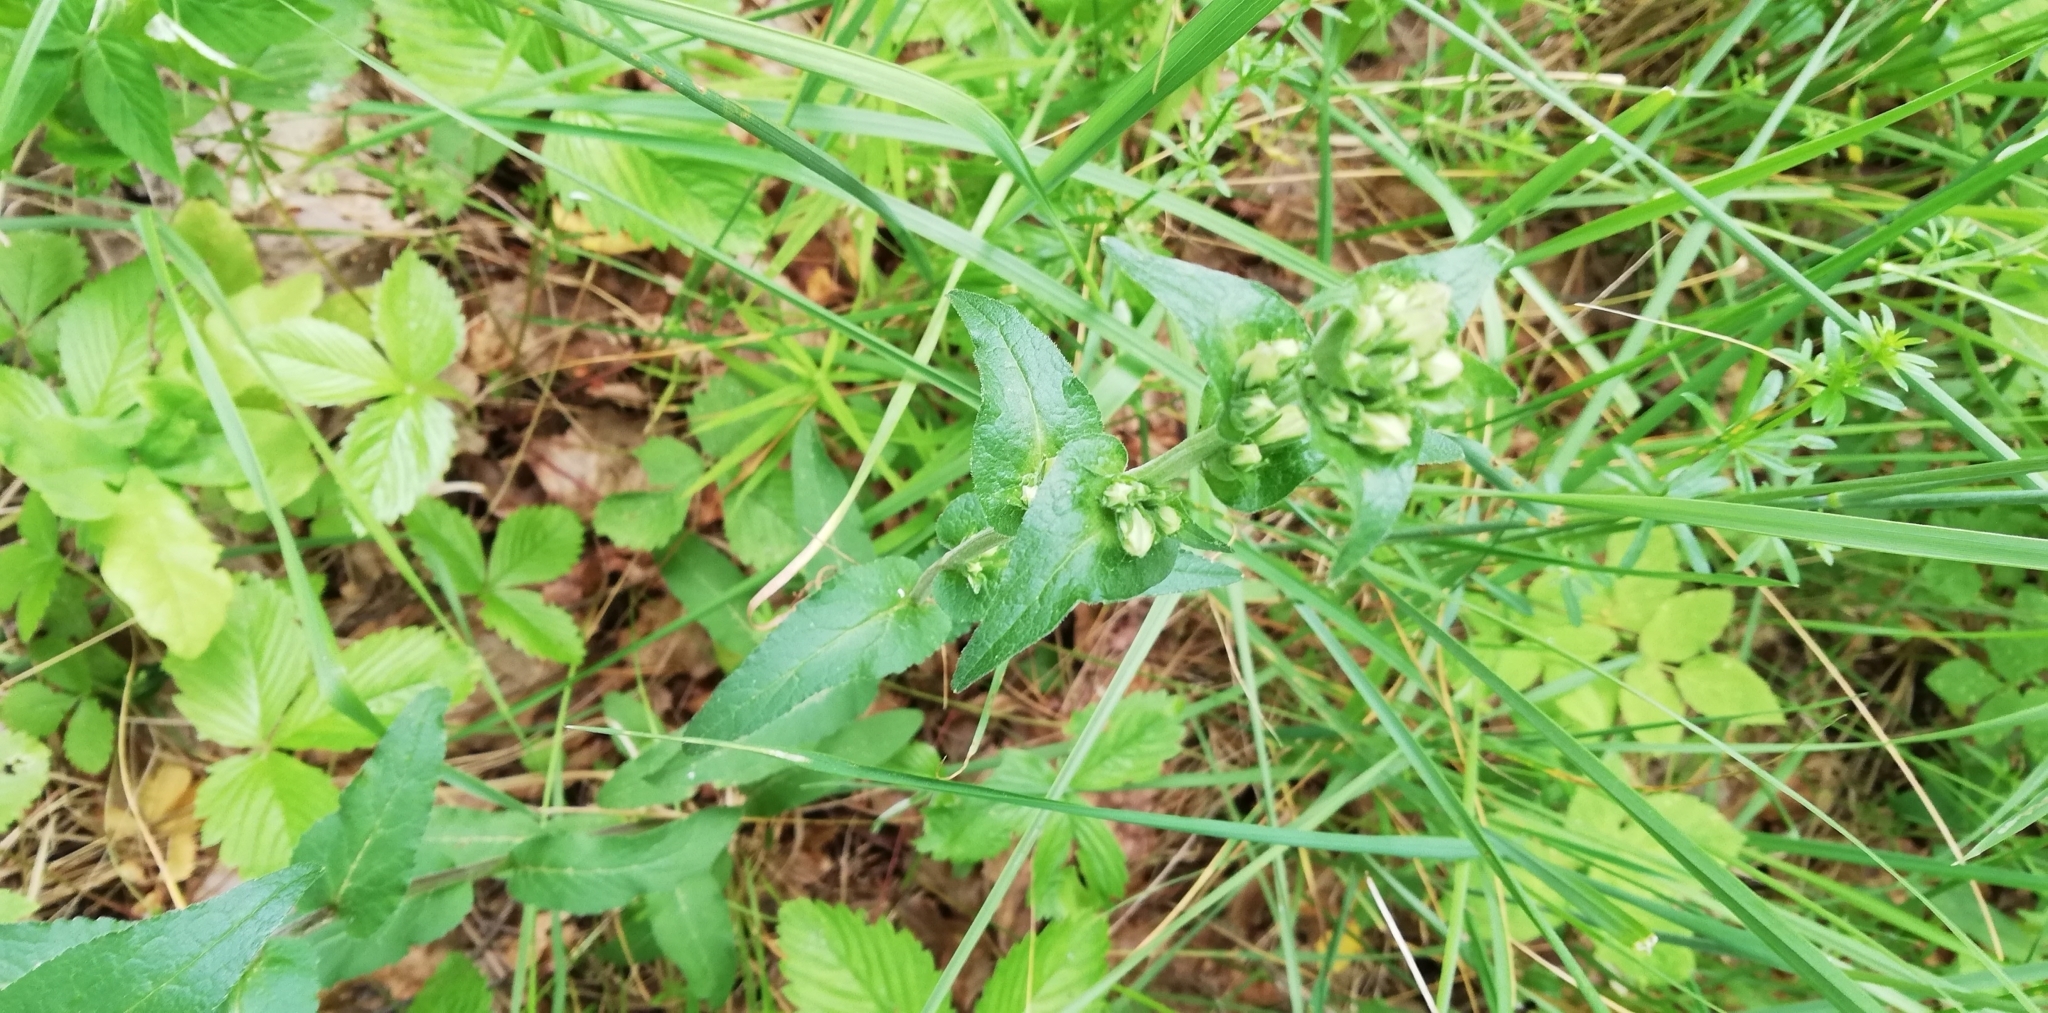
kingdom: Plantae
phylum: Tracheophyta
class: Magnoliopsida
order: Asterales
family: Campanulaceae
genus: Campanula
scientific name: Campanula glomerata
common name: Clustered bellflower
